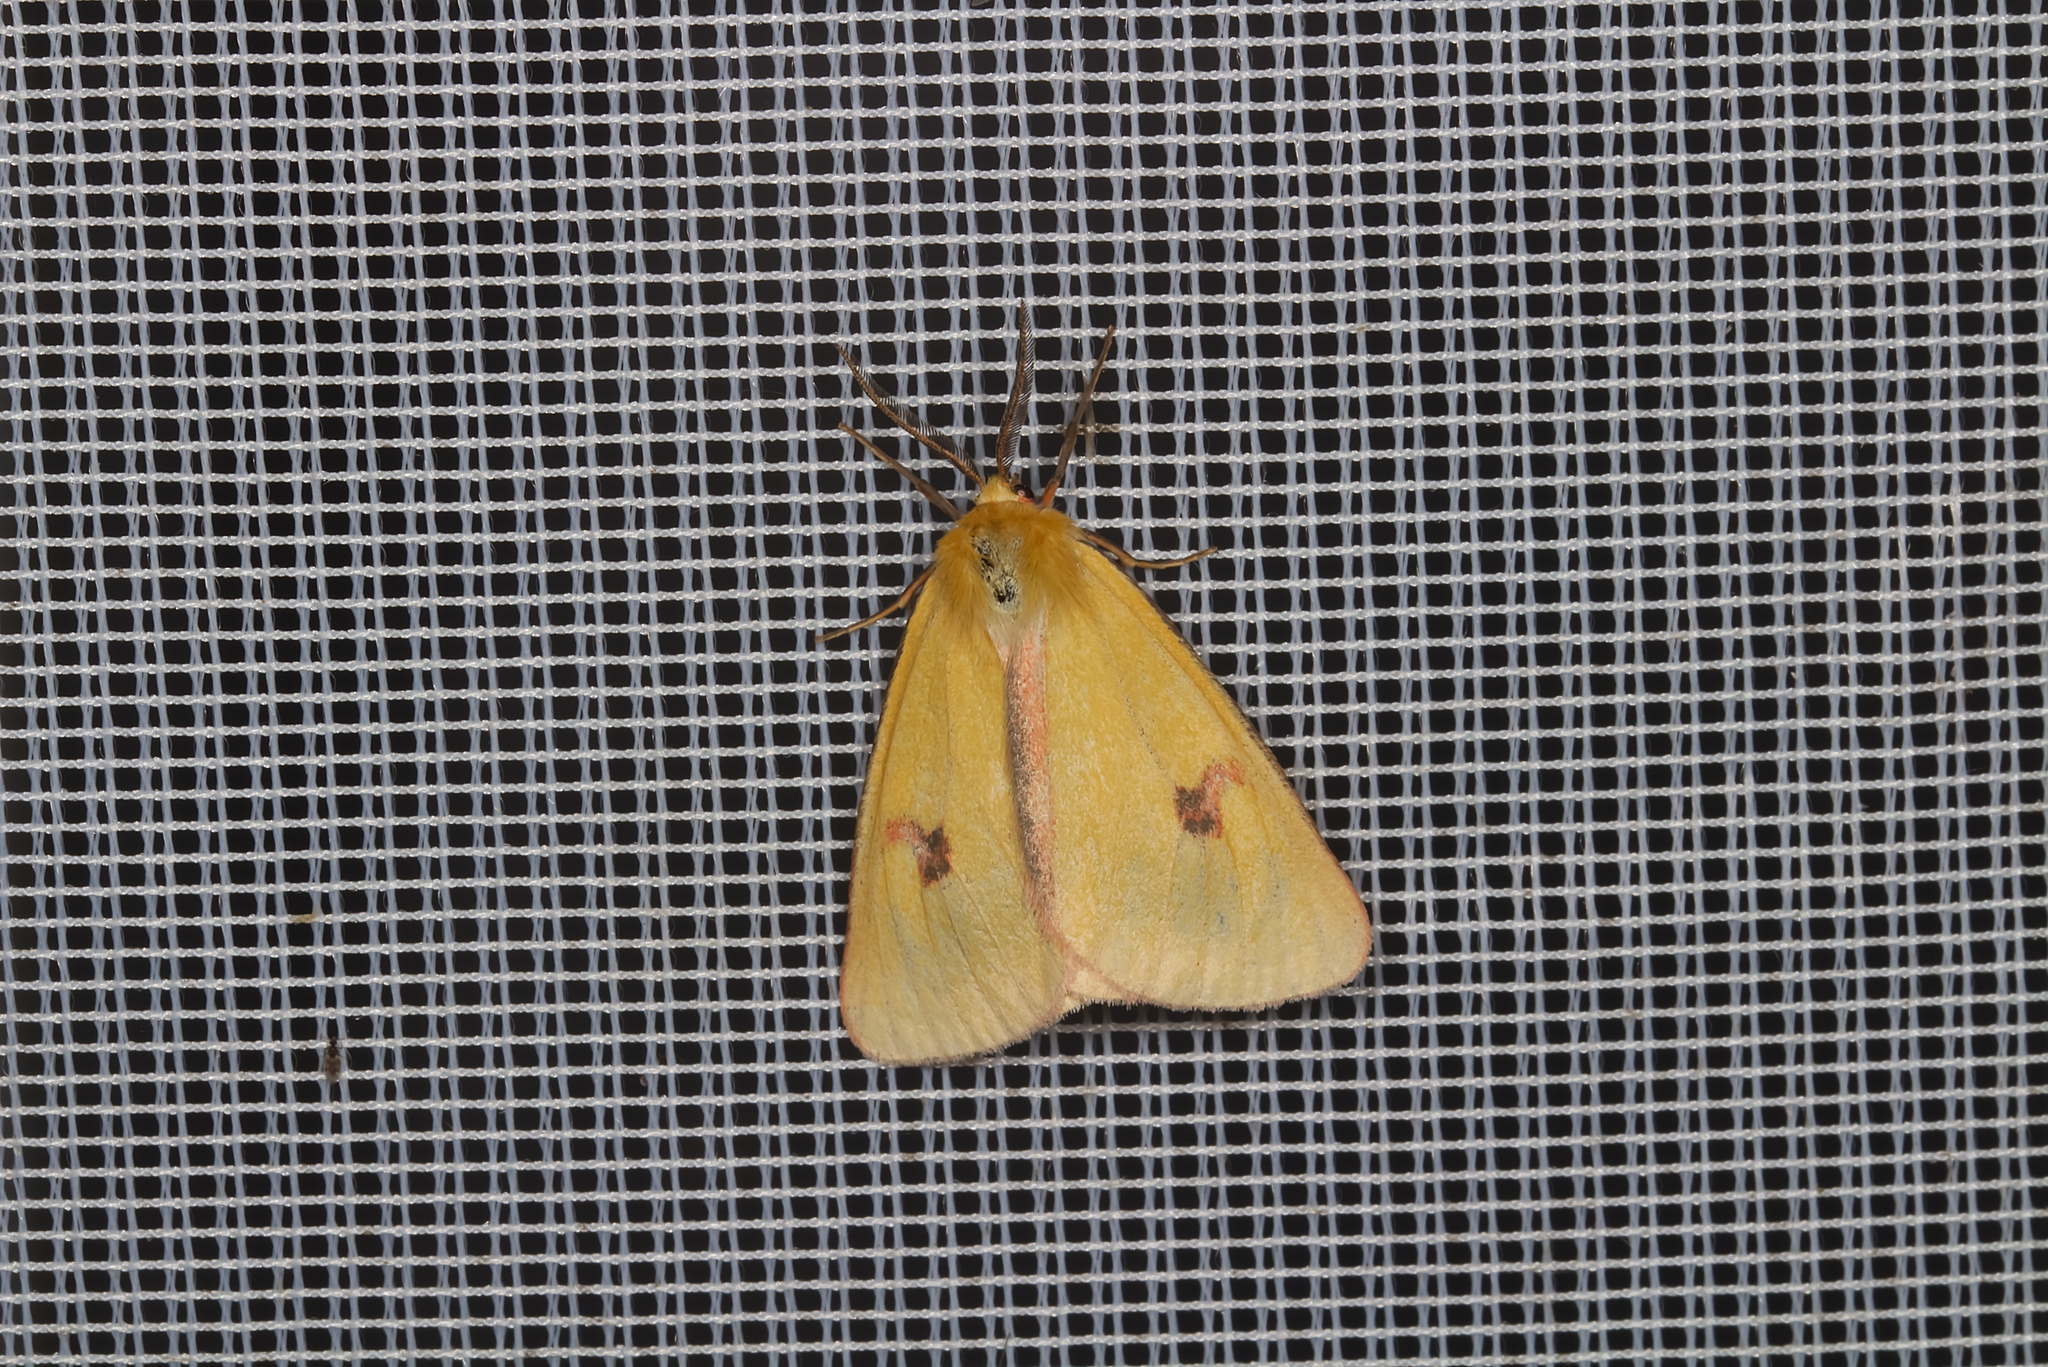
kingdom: Animalia
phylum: Arthropoda
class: Insecta
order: Lepidoptera
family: Erebidae
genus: Diacrisia
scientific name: Diacrisia sannio
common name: Clouded buff
